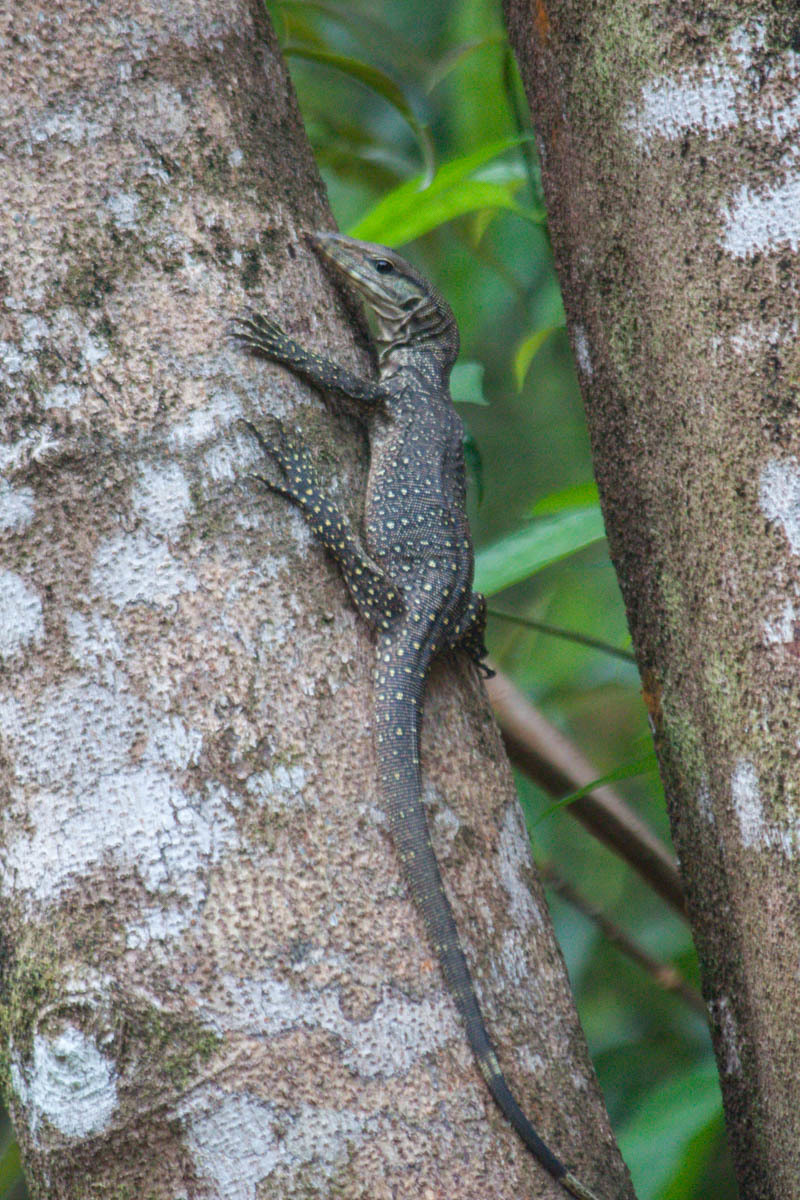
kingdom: Animalia
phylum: Chordata
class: Squamata
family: Varanidae
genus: Varanus
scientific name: Varanus nebulosus
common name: Clouded monitor
